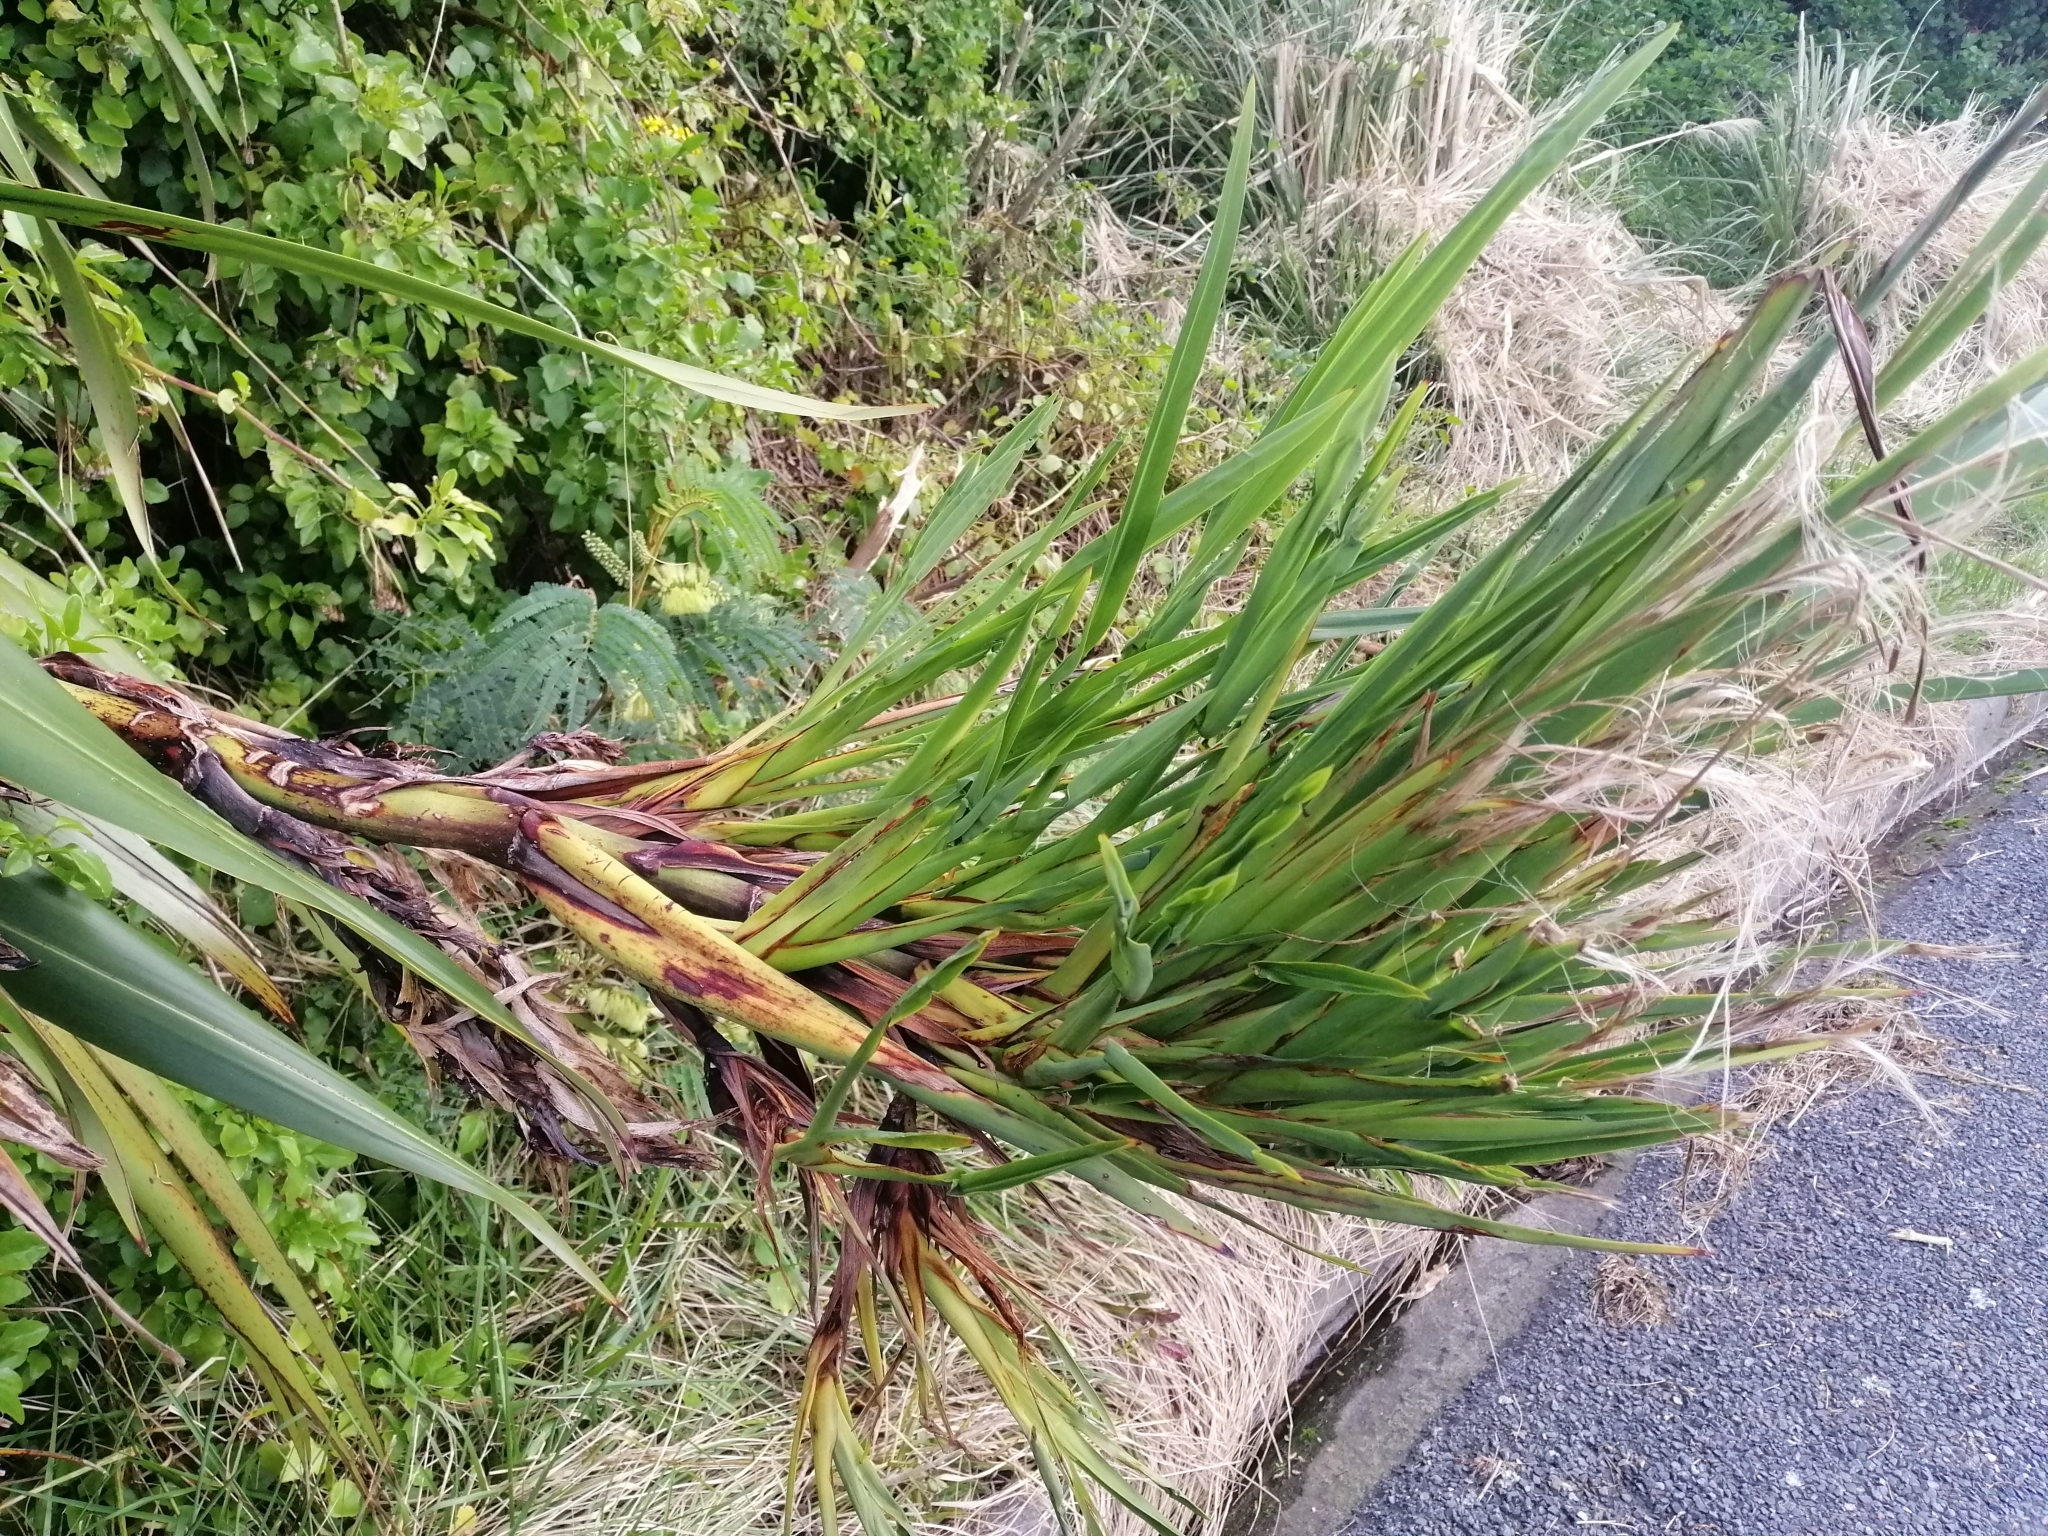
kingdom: Plantae
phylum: Tracheophyta
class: Liliopsida
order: Asparagales
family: Asphodelaceae
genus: Phormium
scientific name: Phormium colensoi
